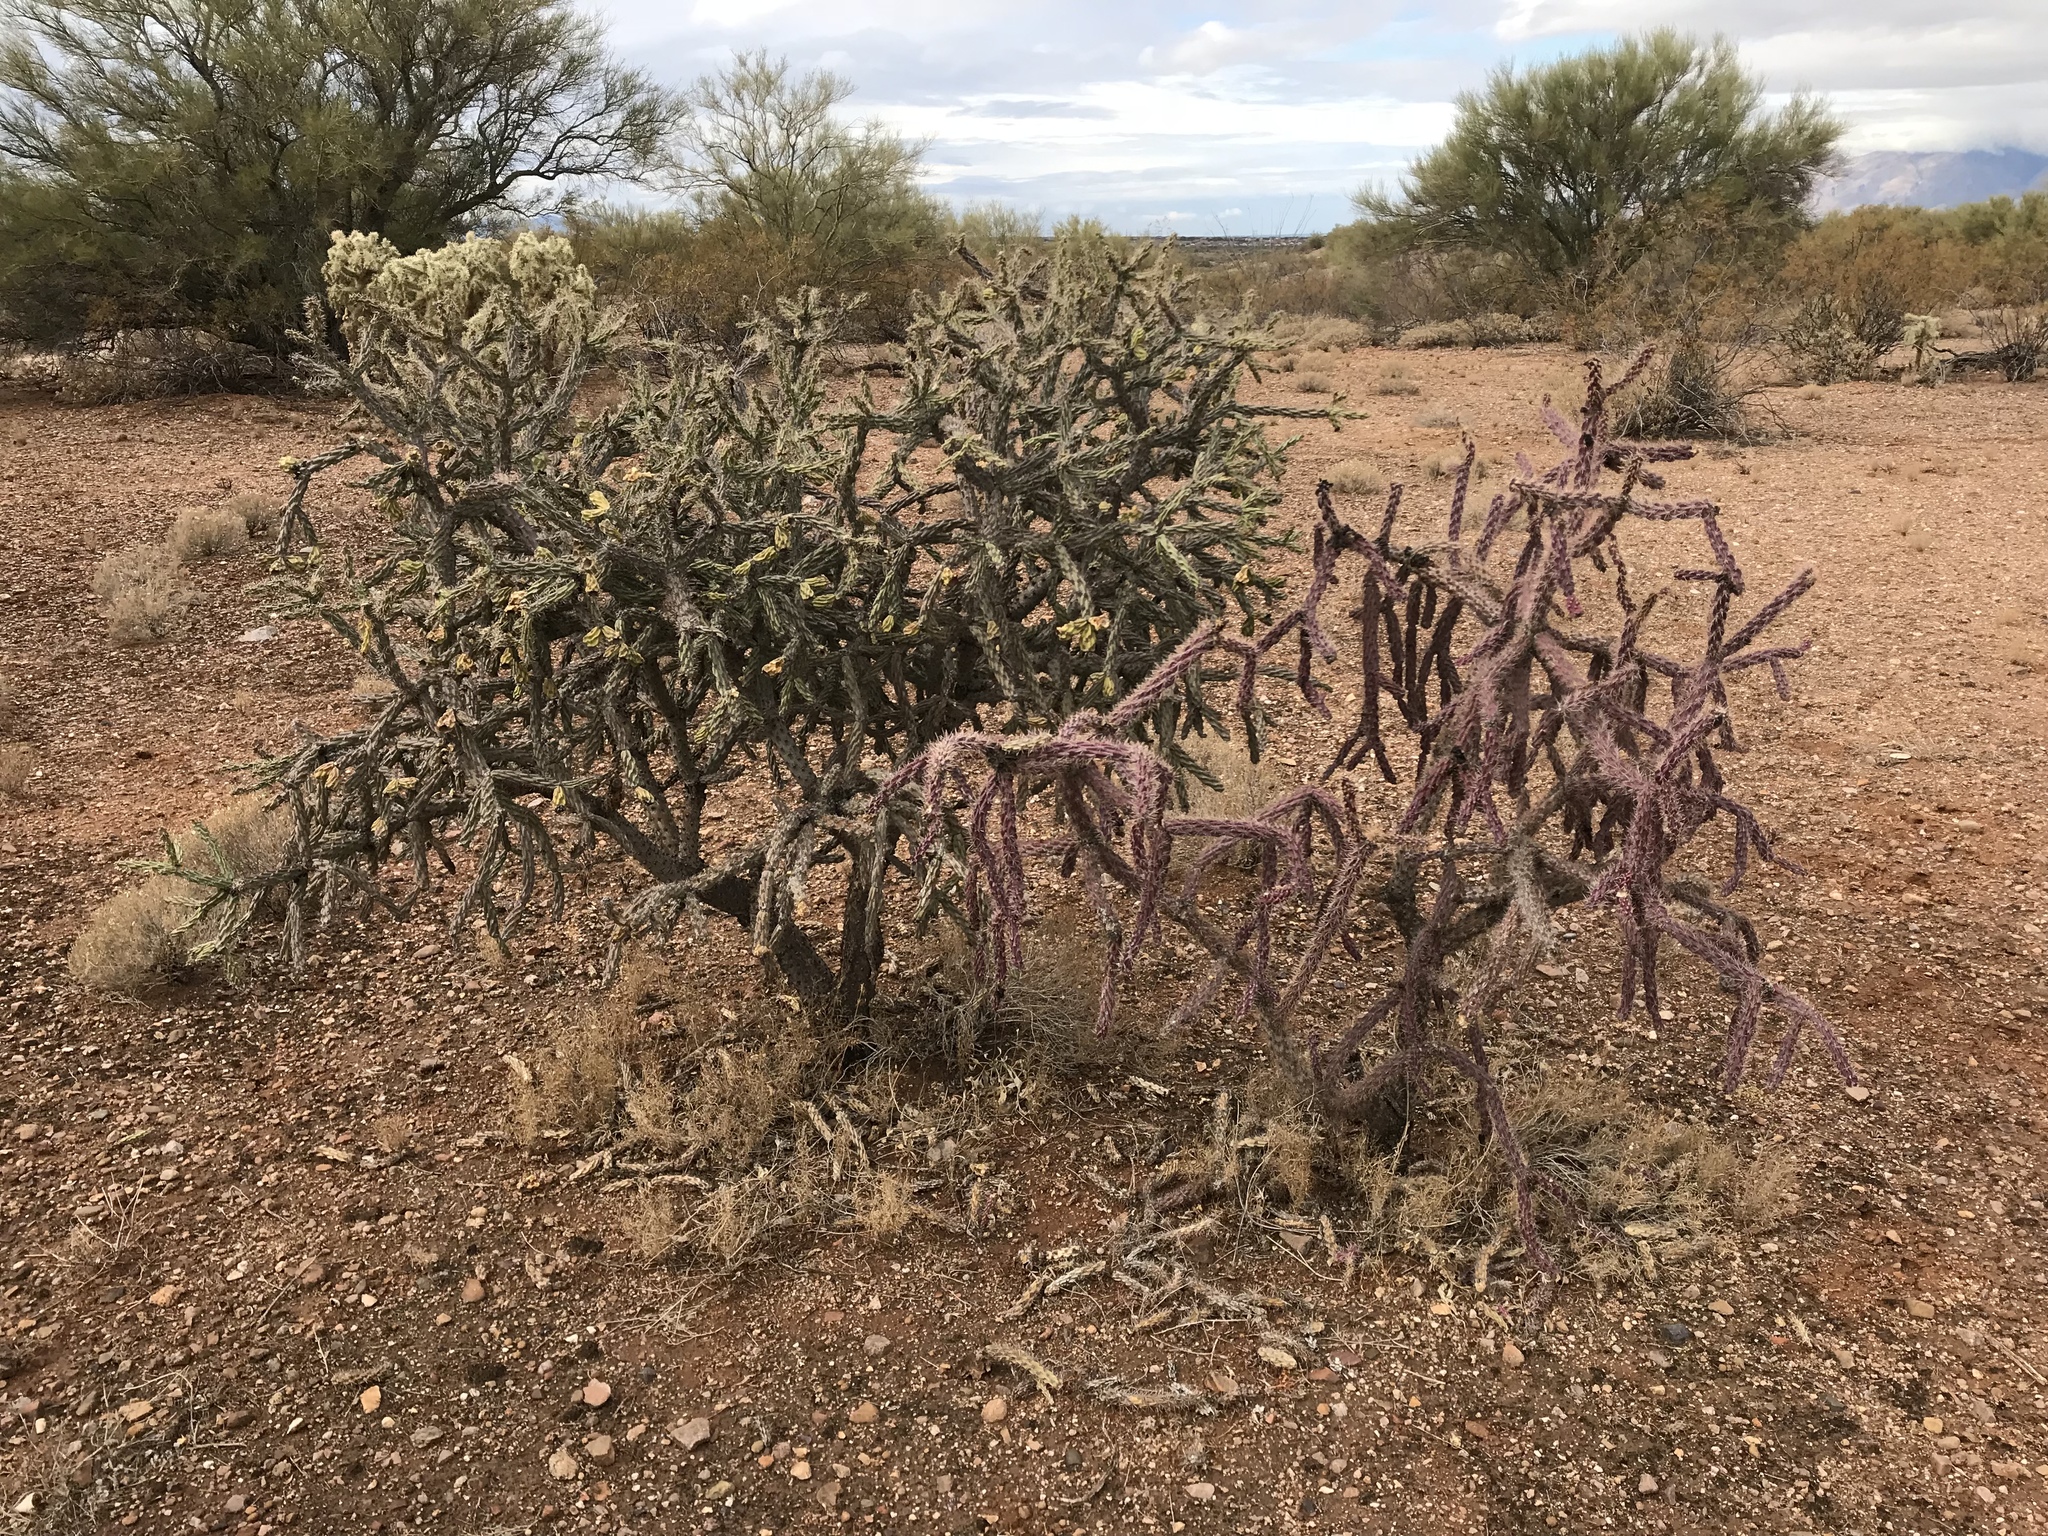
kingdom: Plantae
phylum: Tracheophyta
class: Magnoliopsida
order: Caryophyllales
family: Cactaceae
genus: Cylindropuntia
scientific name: Cylindropuntia imbricata
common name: Candelabrum cactus
